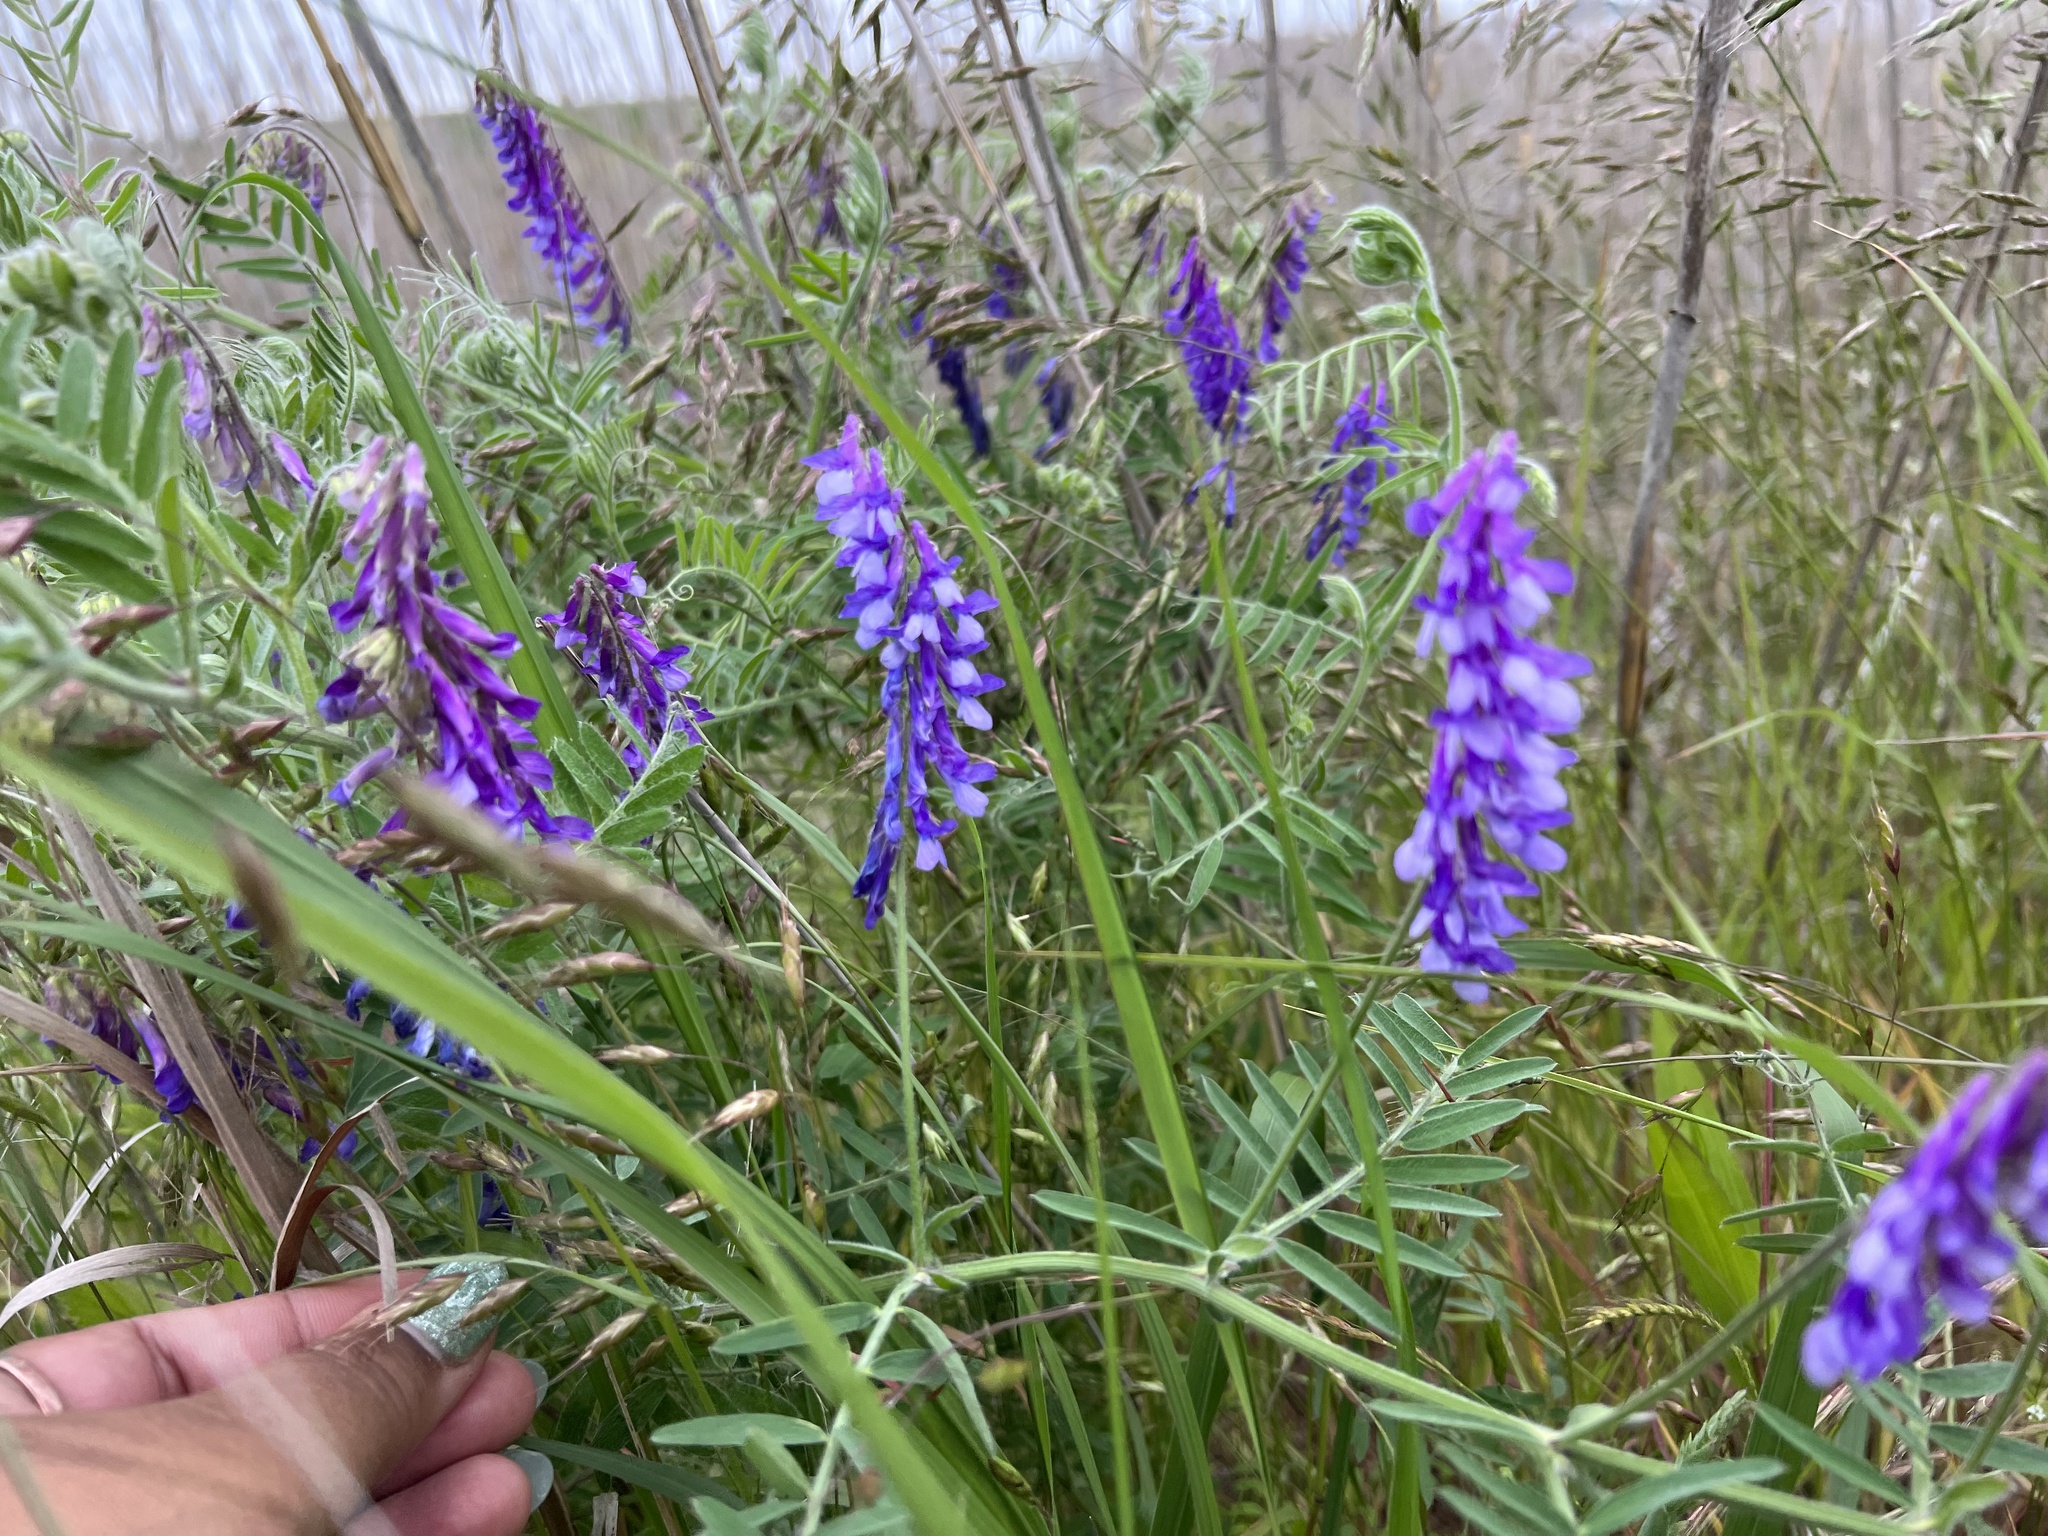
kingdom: Plantae
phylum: Tracheophyta
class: Magnoliopsida
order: Fabales
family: Fabaceae
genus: Vicia
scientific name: Vicia villosa
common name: Fodder vetch
